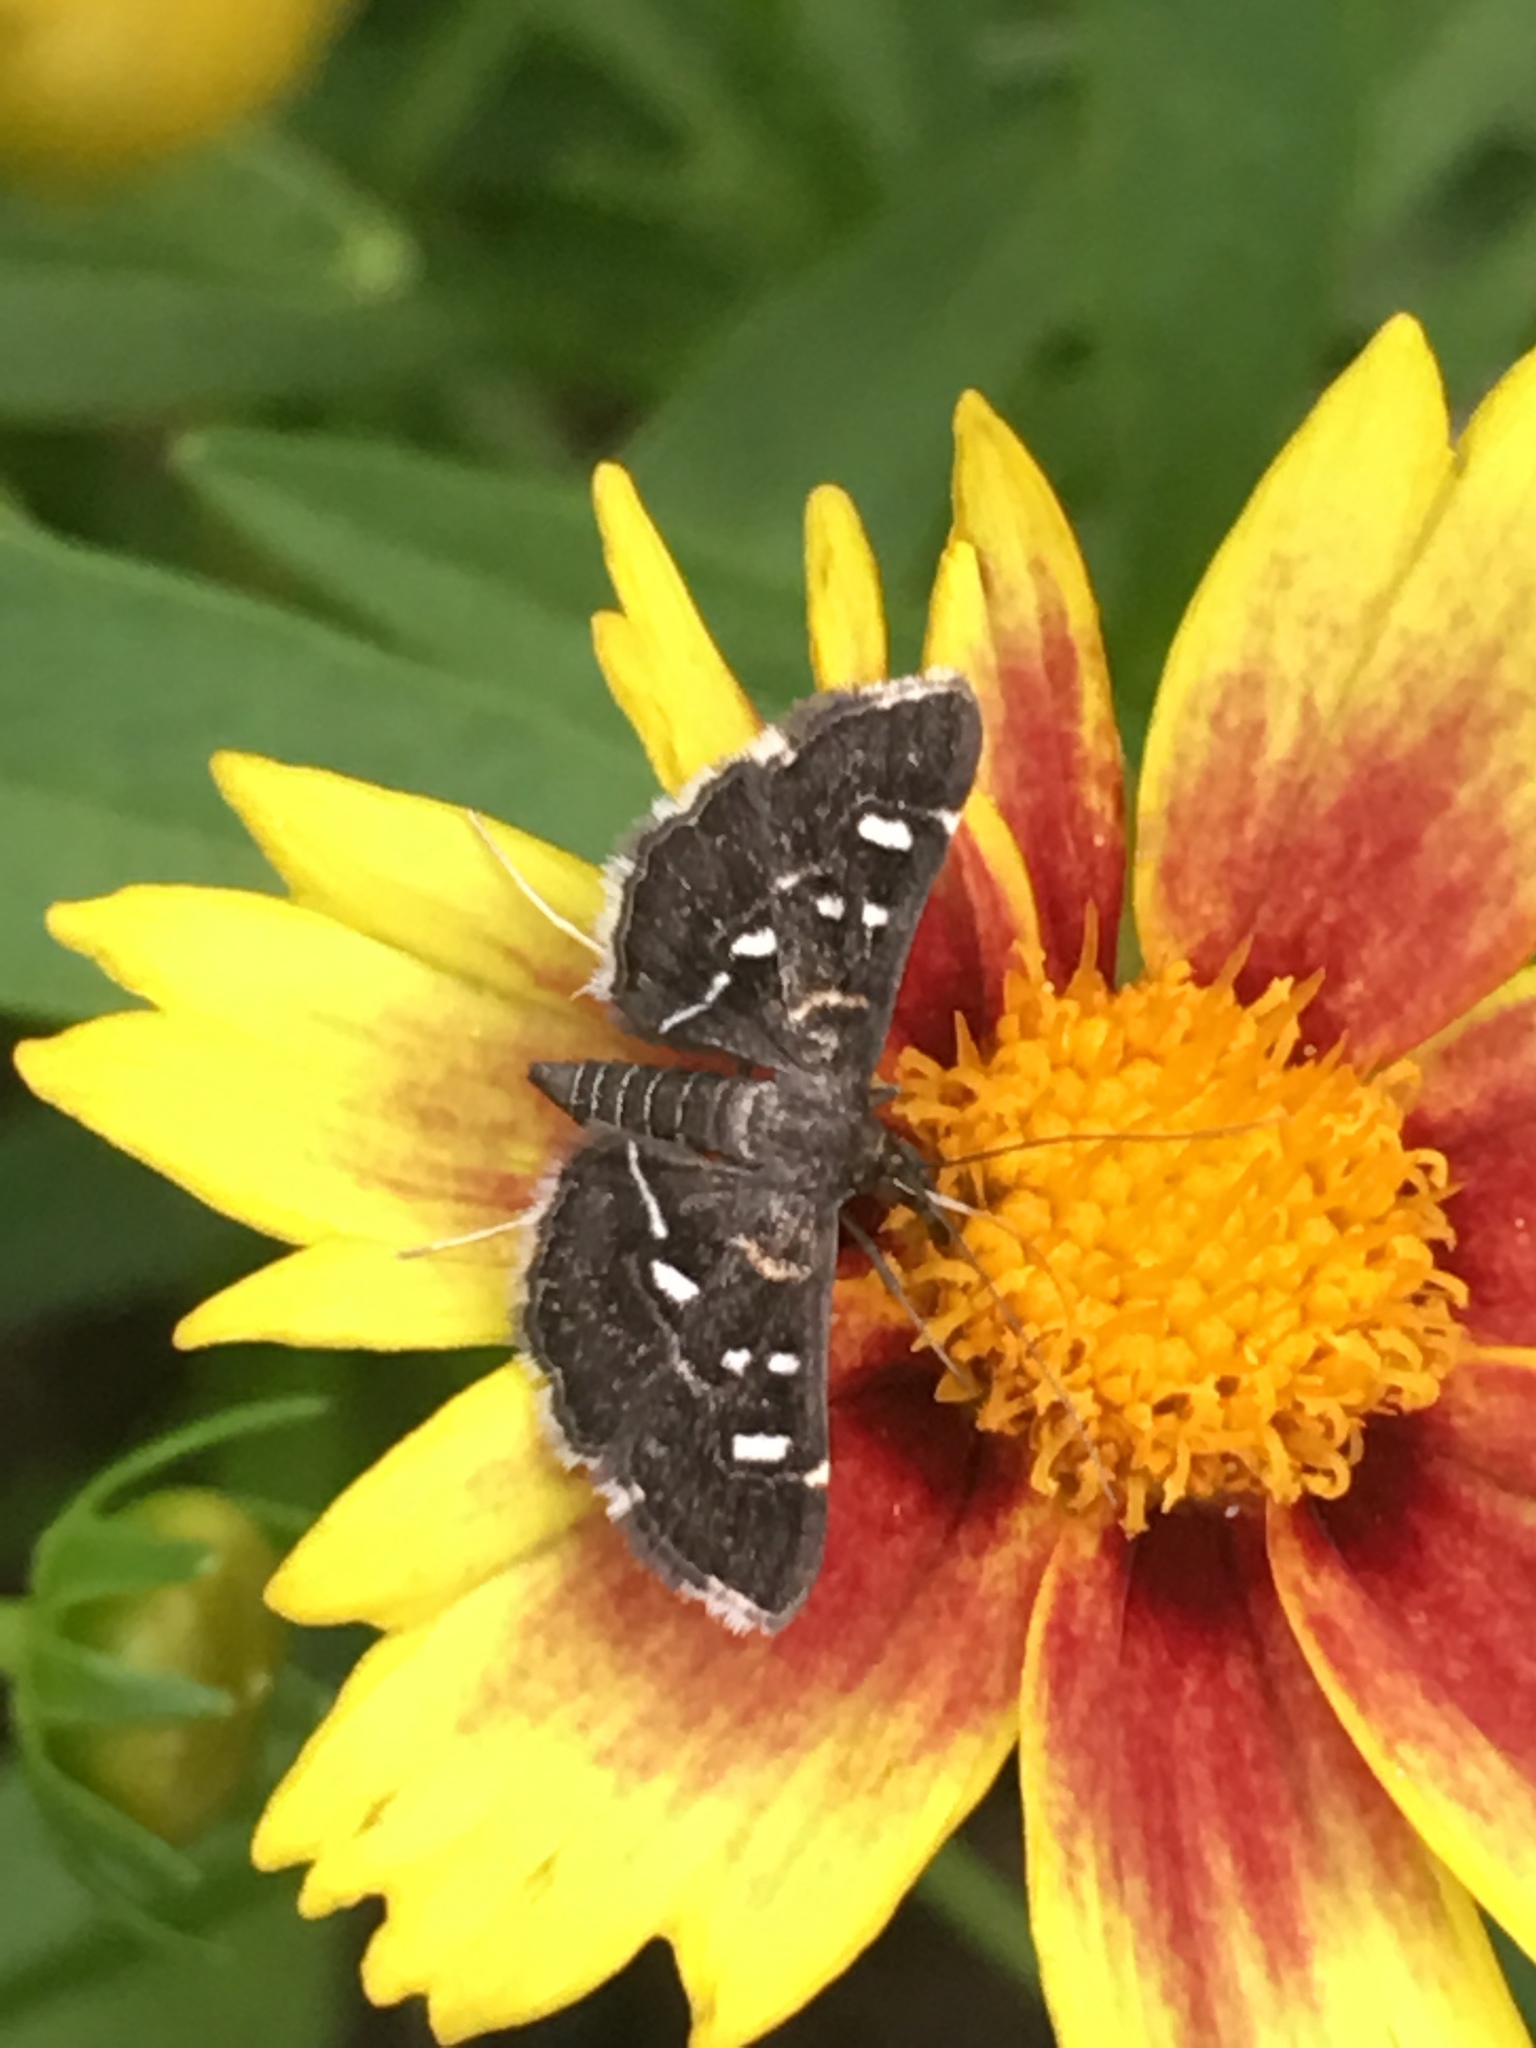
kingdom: Animalia
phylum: Arthropoda
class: Insecta
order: Lepidoptera
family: Crambidae
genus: Diathrausta
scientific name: Diathrausta harlequinalis
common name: Harlequin webworm moth
